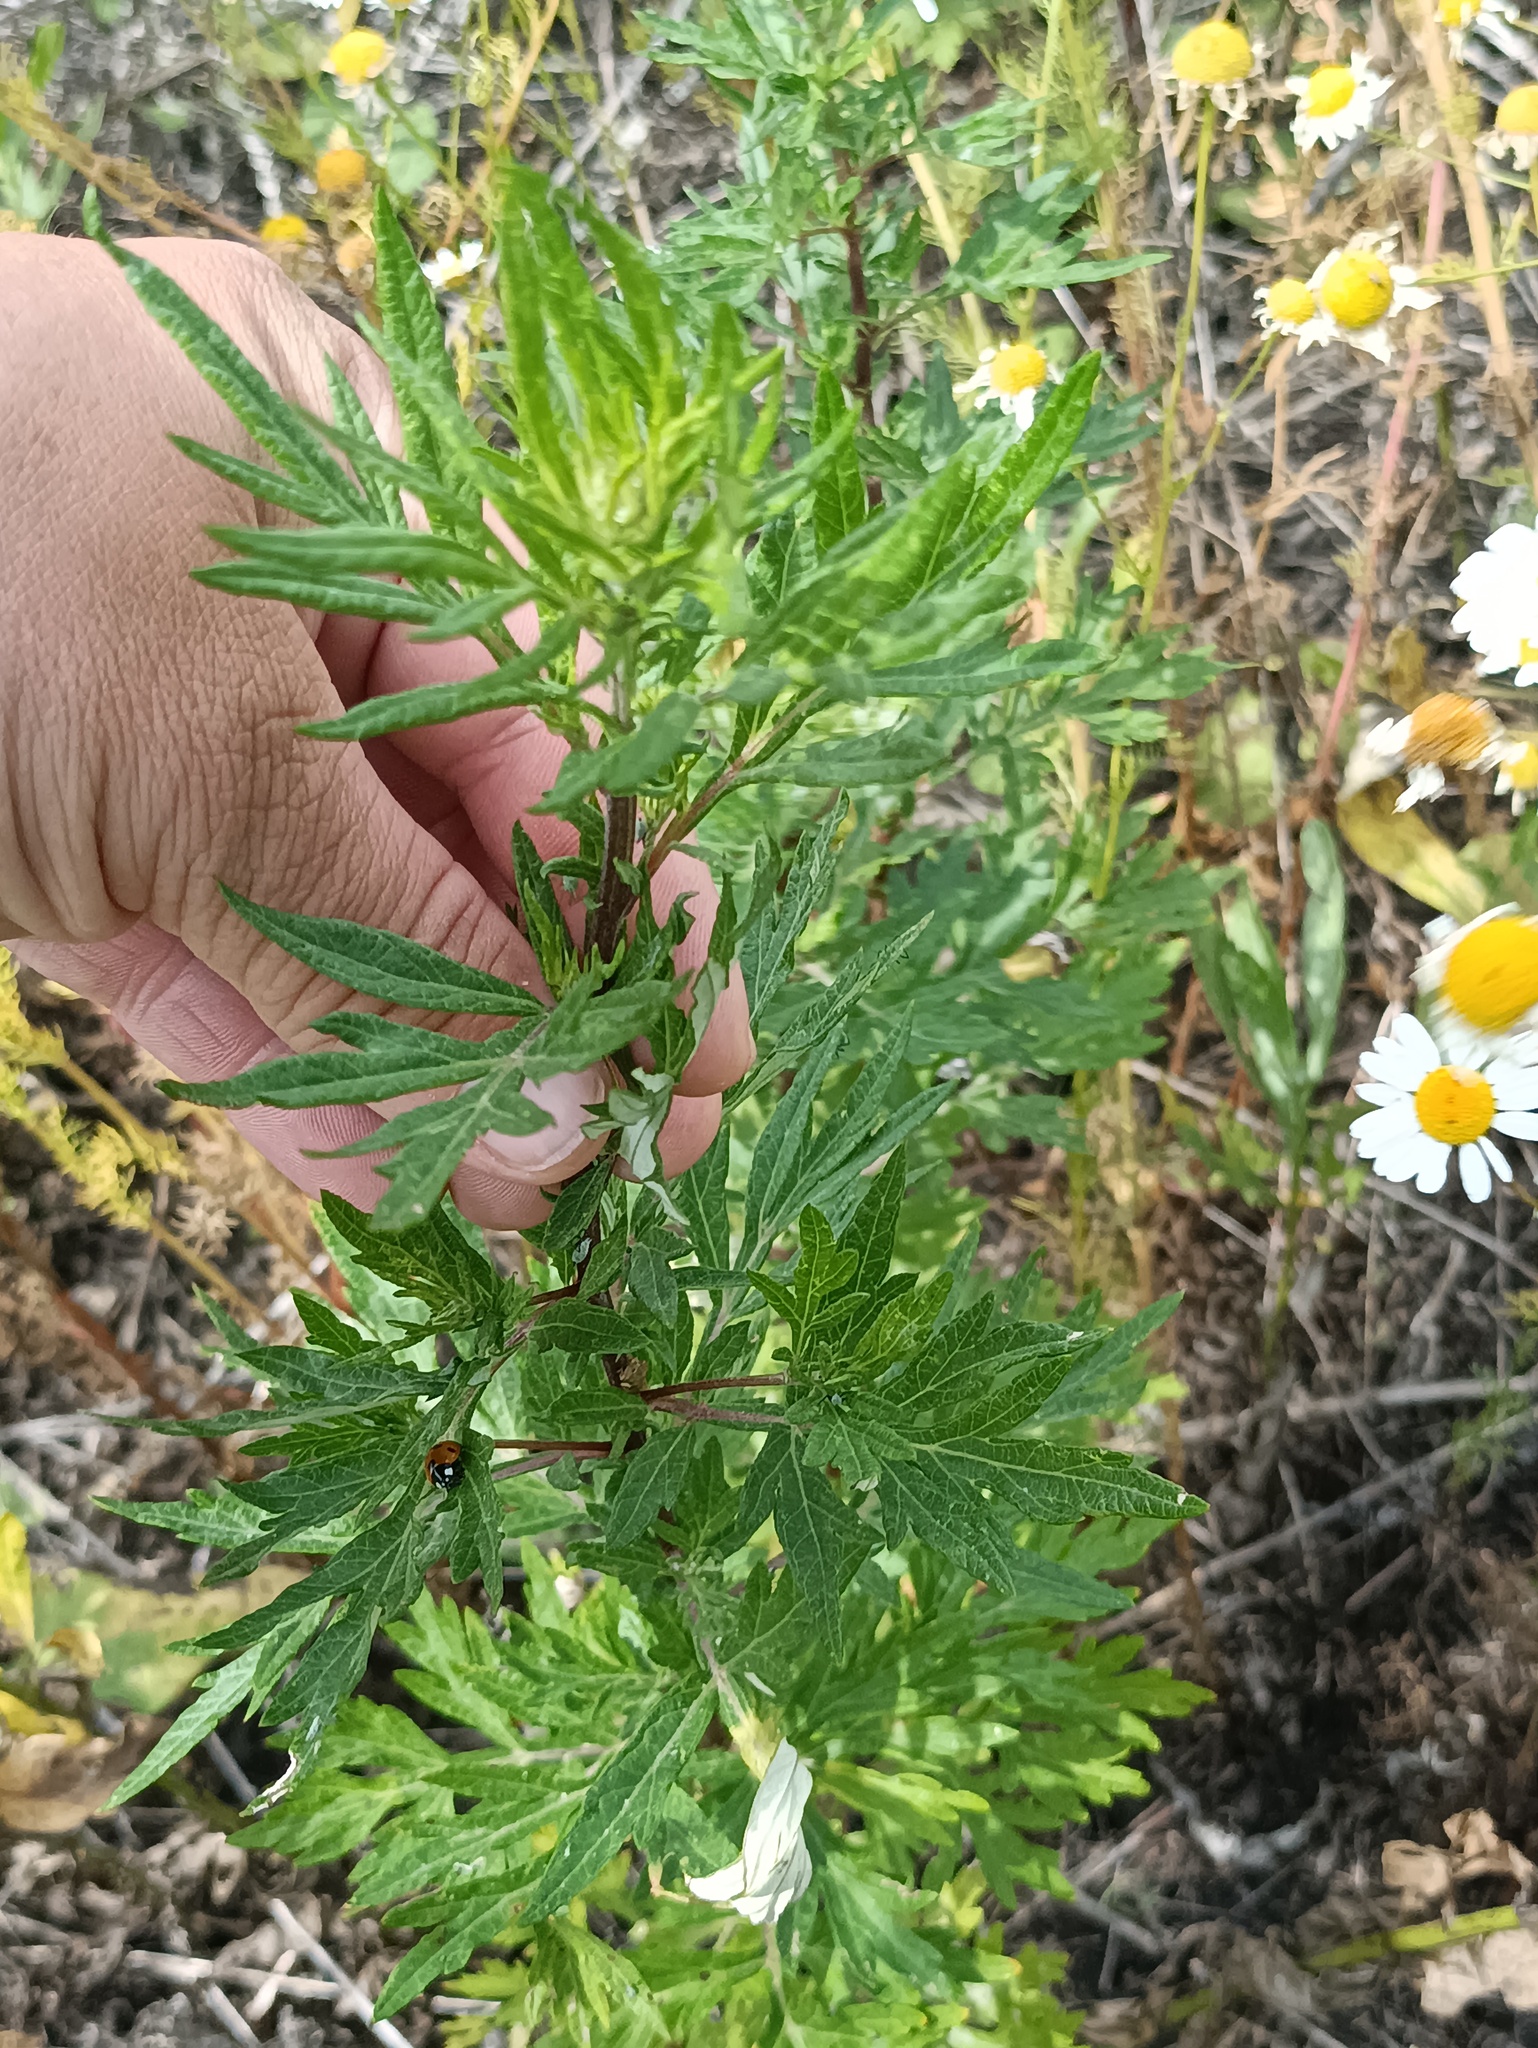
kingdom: Plantae
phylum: Tracheophyta
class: Magnoliopsida
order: Asterales
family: Asteraceae
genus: Artemisia
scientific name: Artemisia vulgaris
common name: Mugwort
